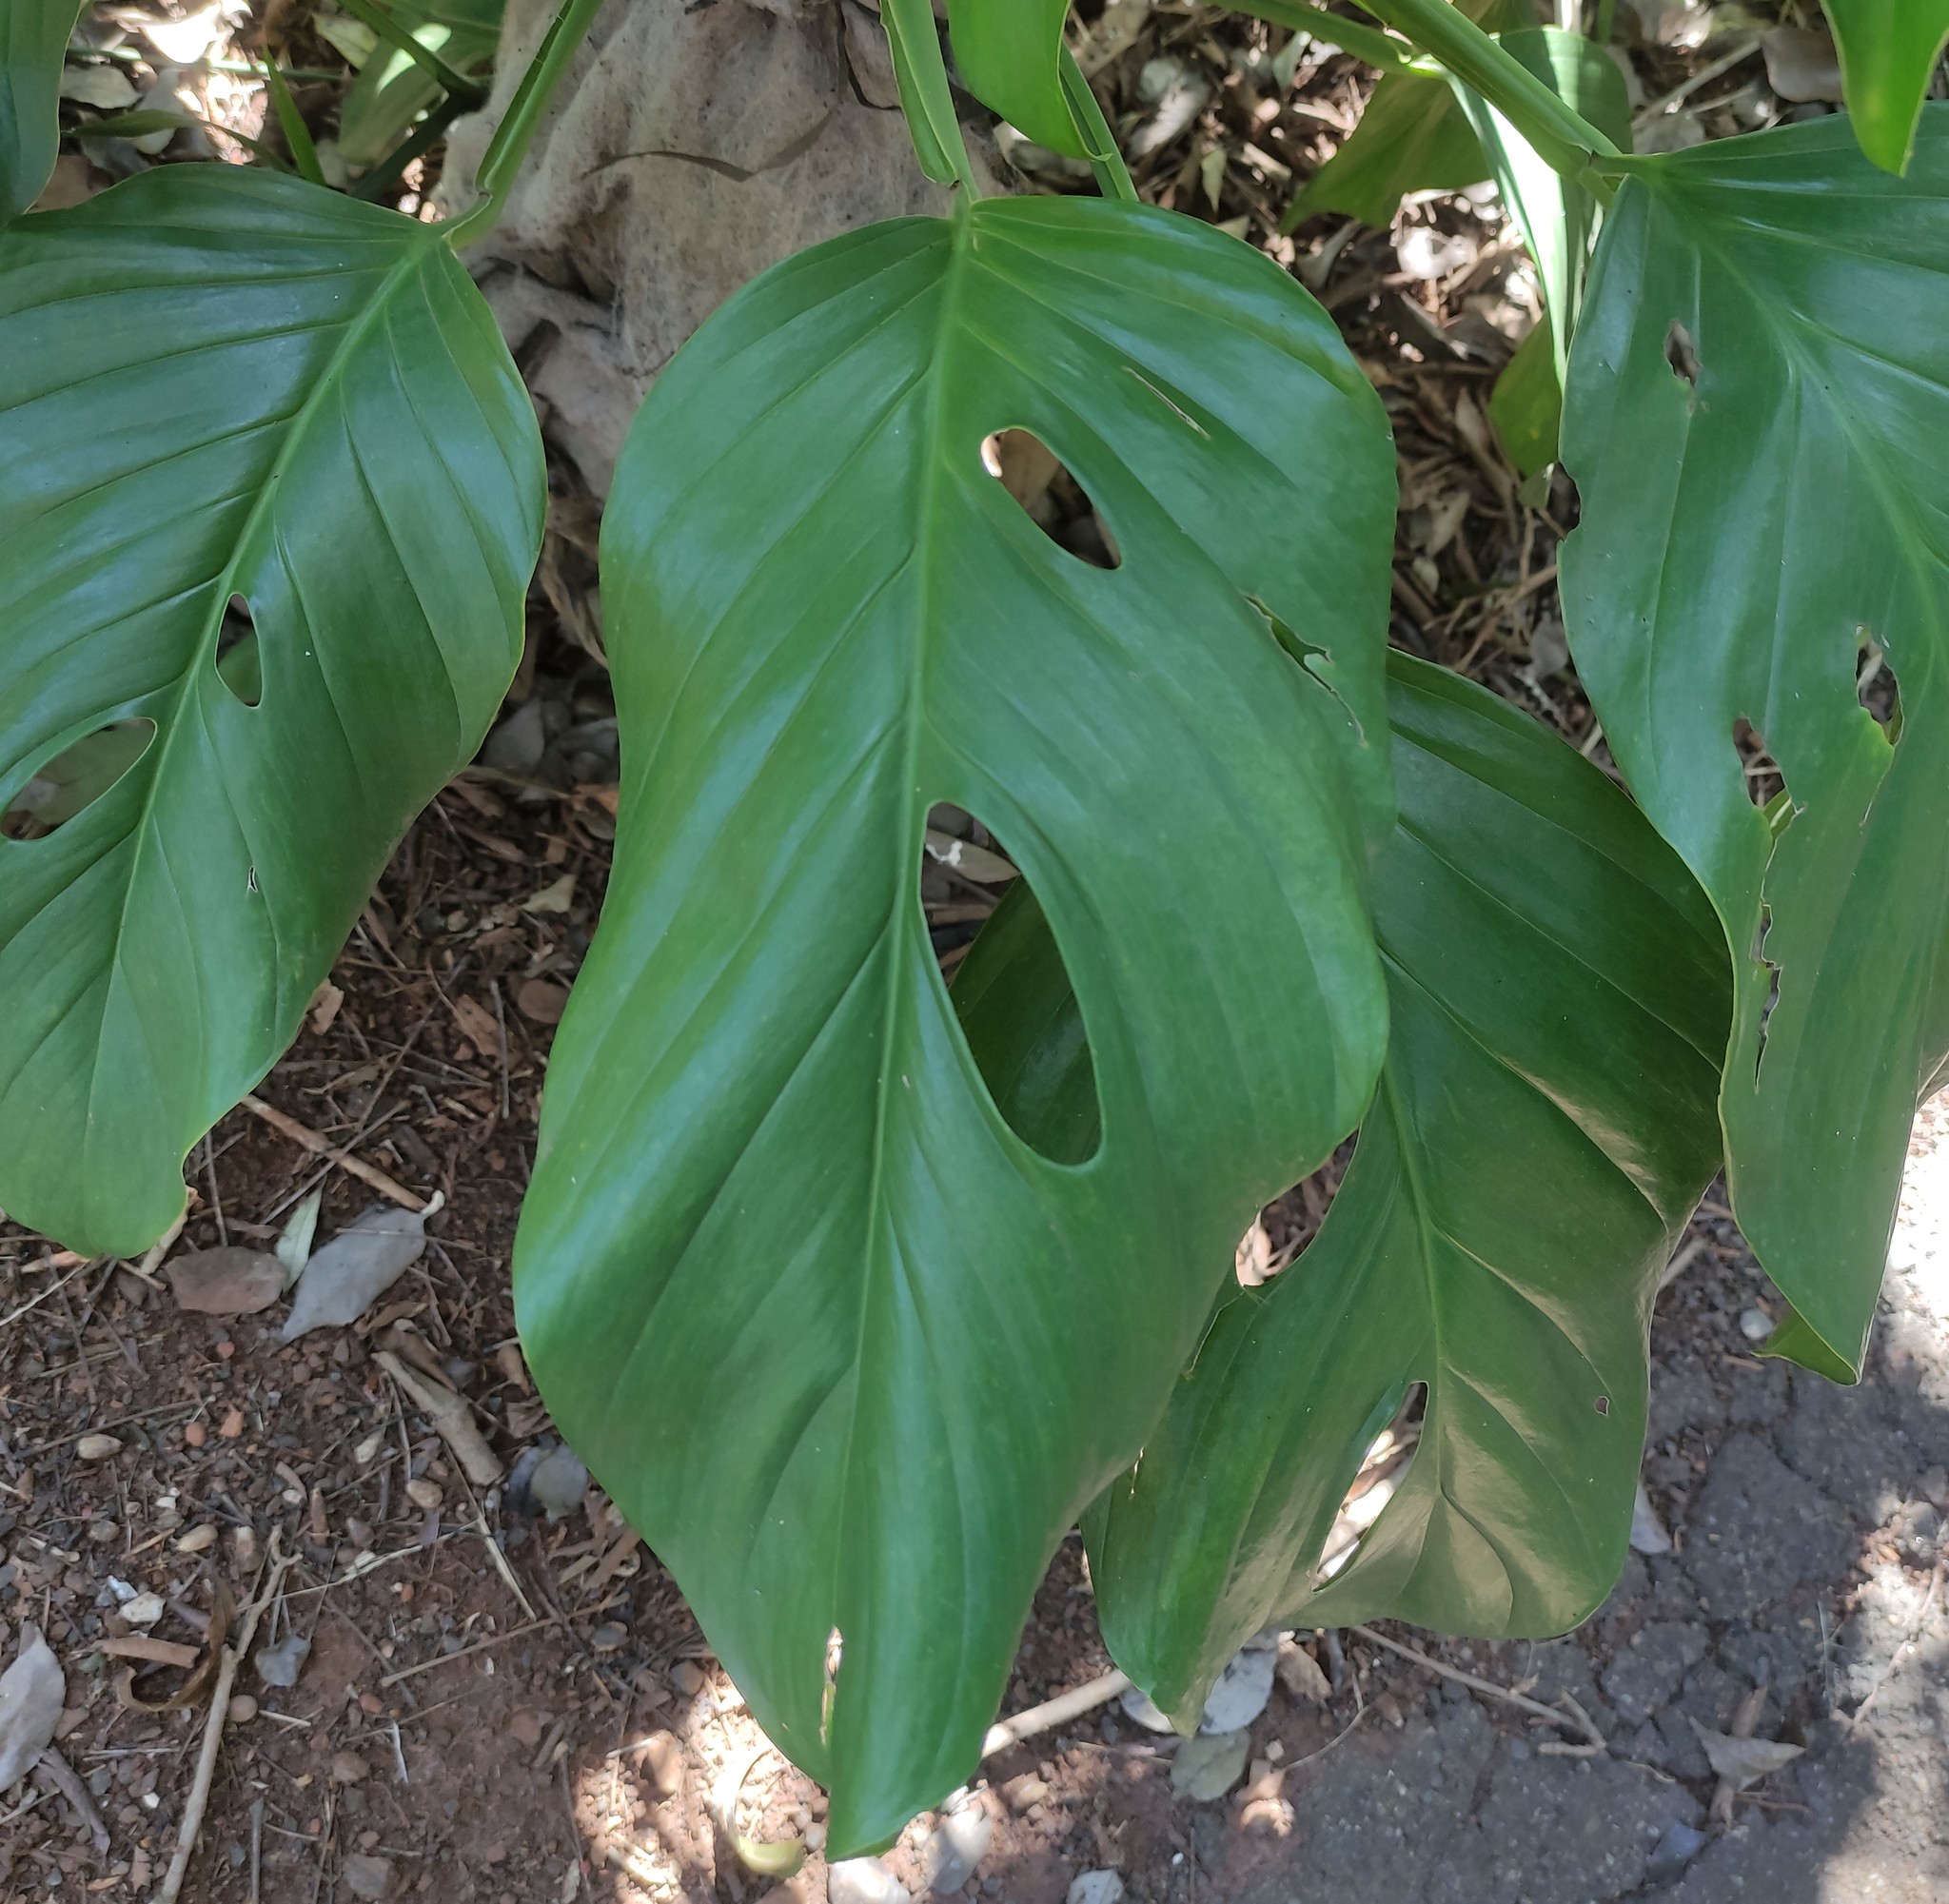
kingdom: Plantae
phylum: Tracheophyta
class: Liliopsida
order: Alismatales
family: Araceae
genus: Monstera
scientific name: Monstera adansonii
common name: Tarovine
